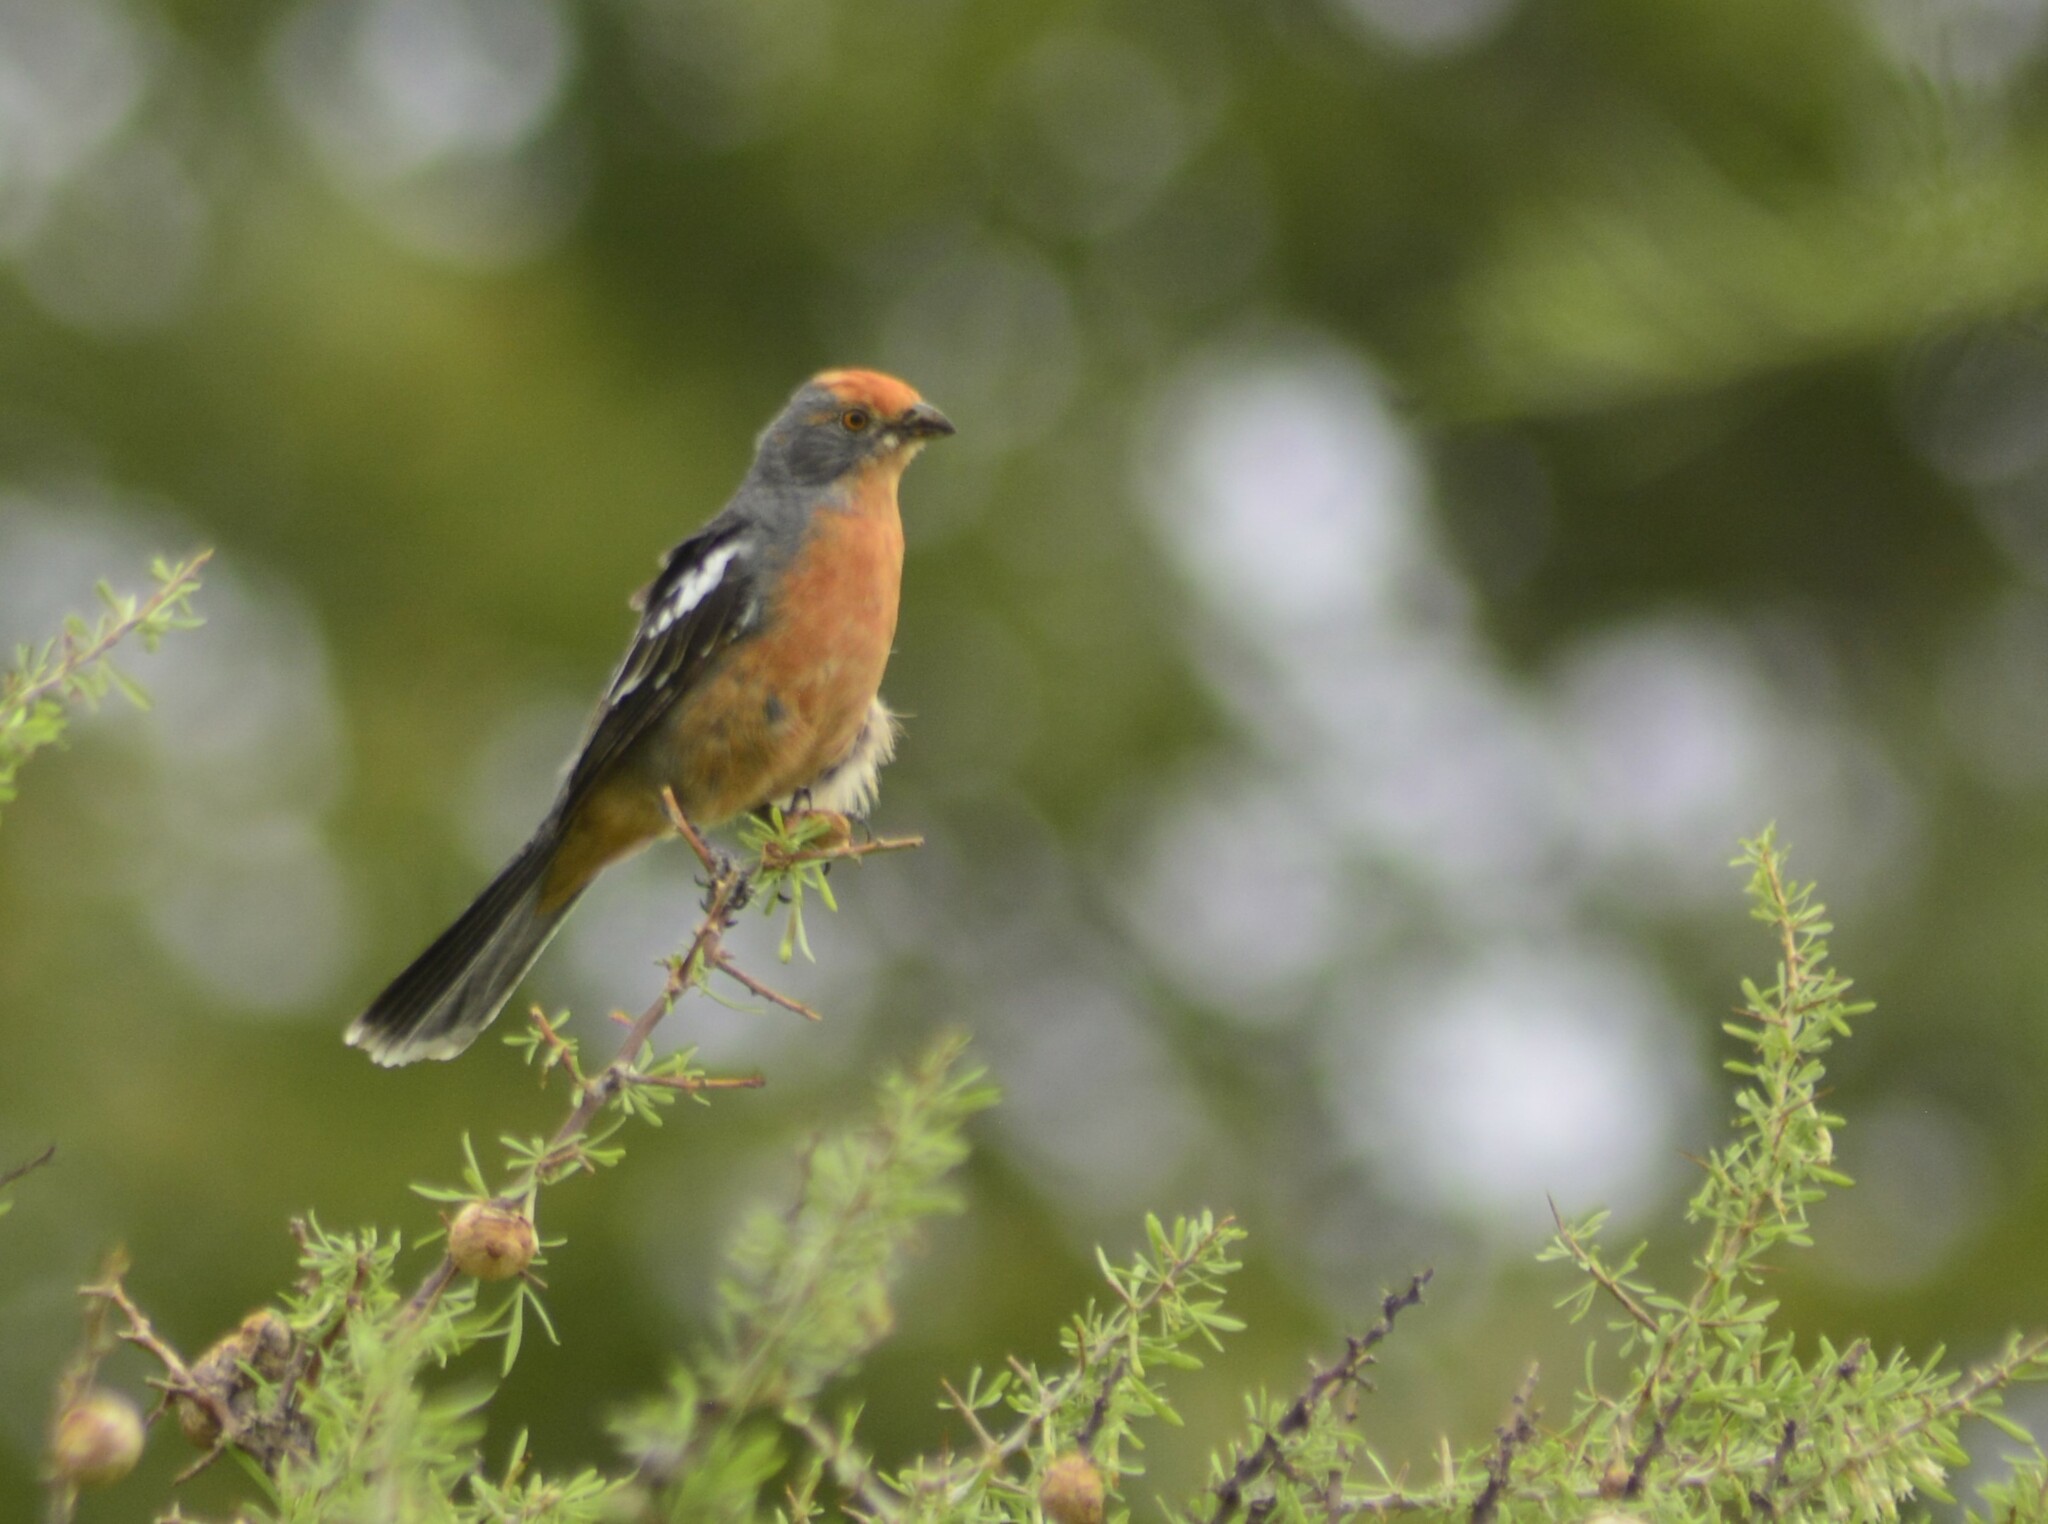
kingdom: Animalia
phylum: Chordata
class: Aves
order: Passeriformes
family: Cotingidae
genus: Phytotoma
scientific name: Phytotoma rutila
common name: White-tipped plantcutter
